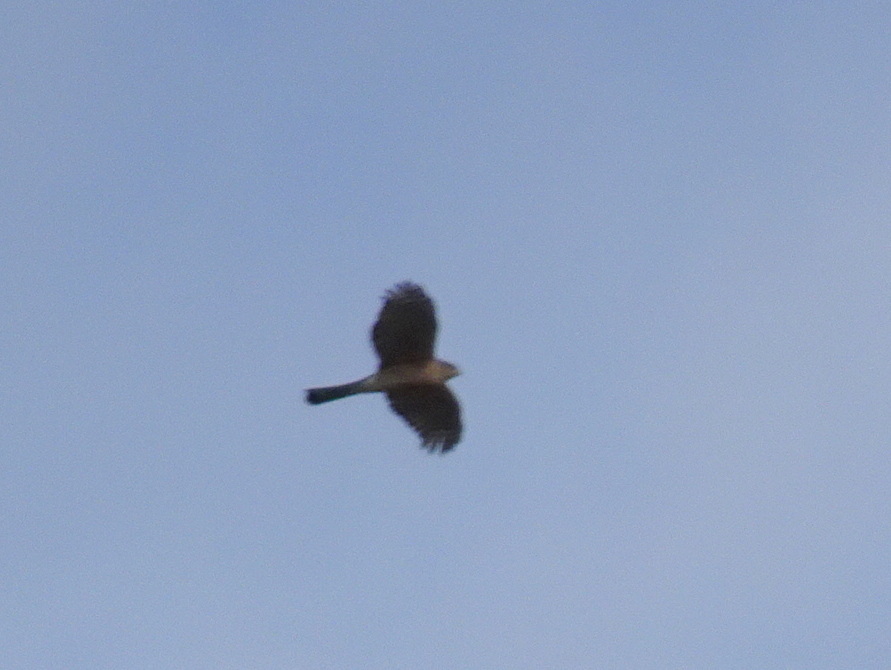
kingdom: Animalia
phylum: Chordata
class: Aves
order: Accipitriformes
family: Accipitridae
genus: Accipiter
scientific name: Accipiter striatus
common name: Sharp-shinned hawk
